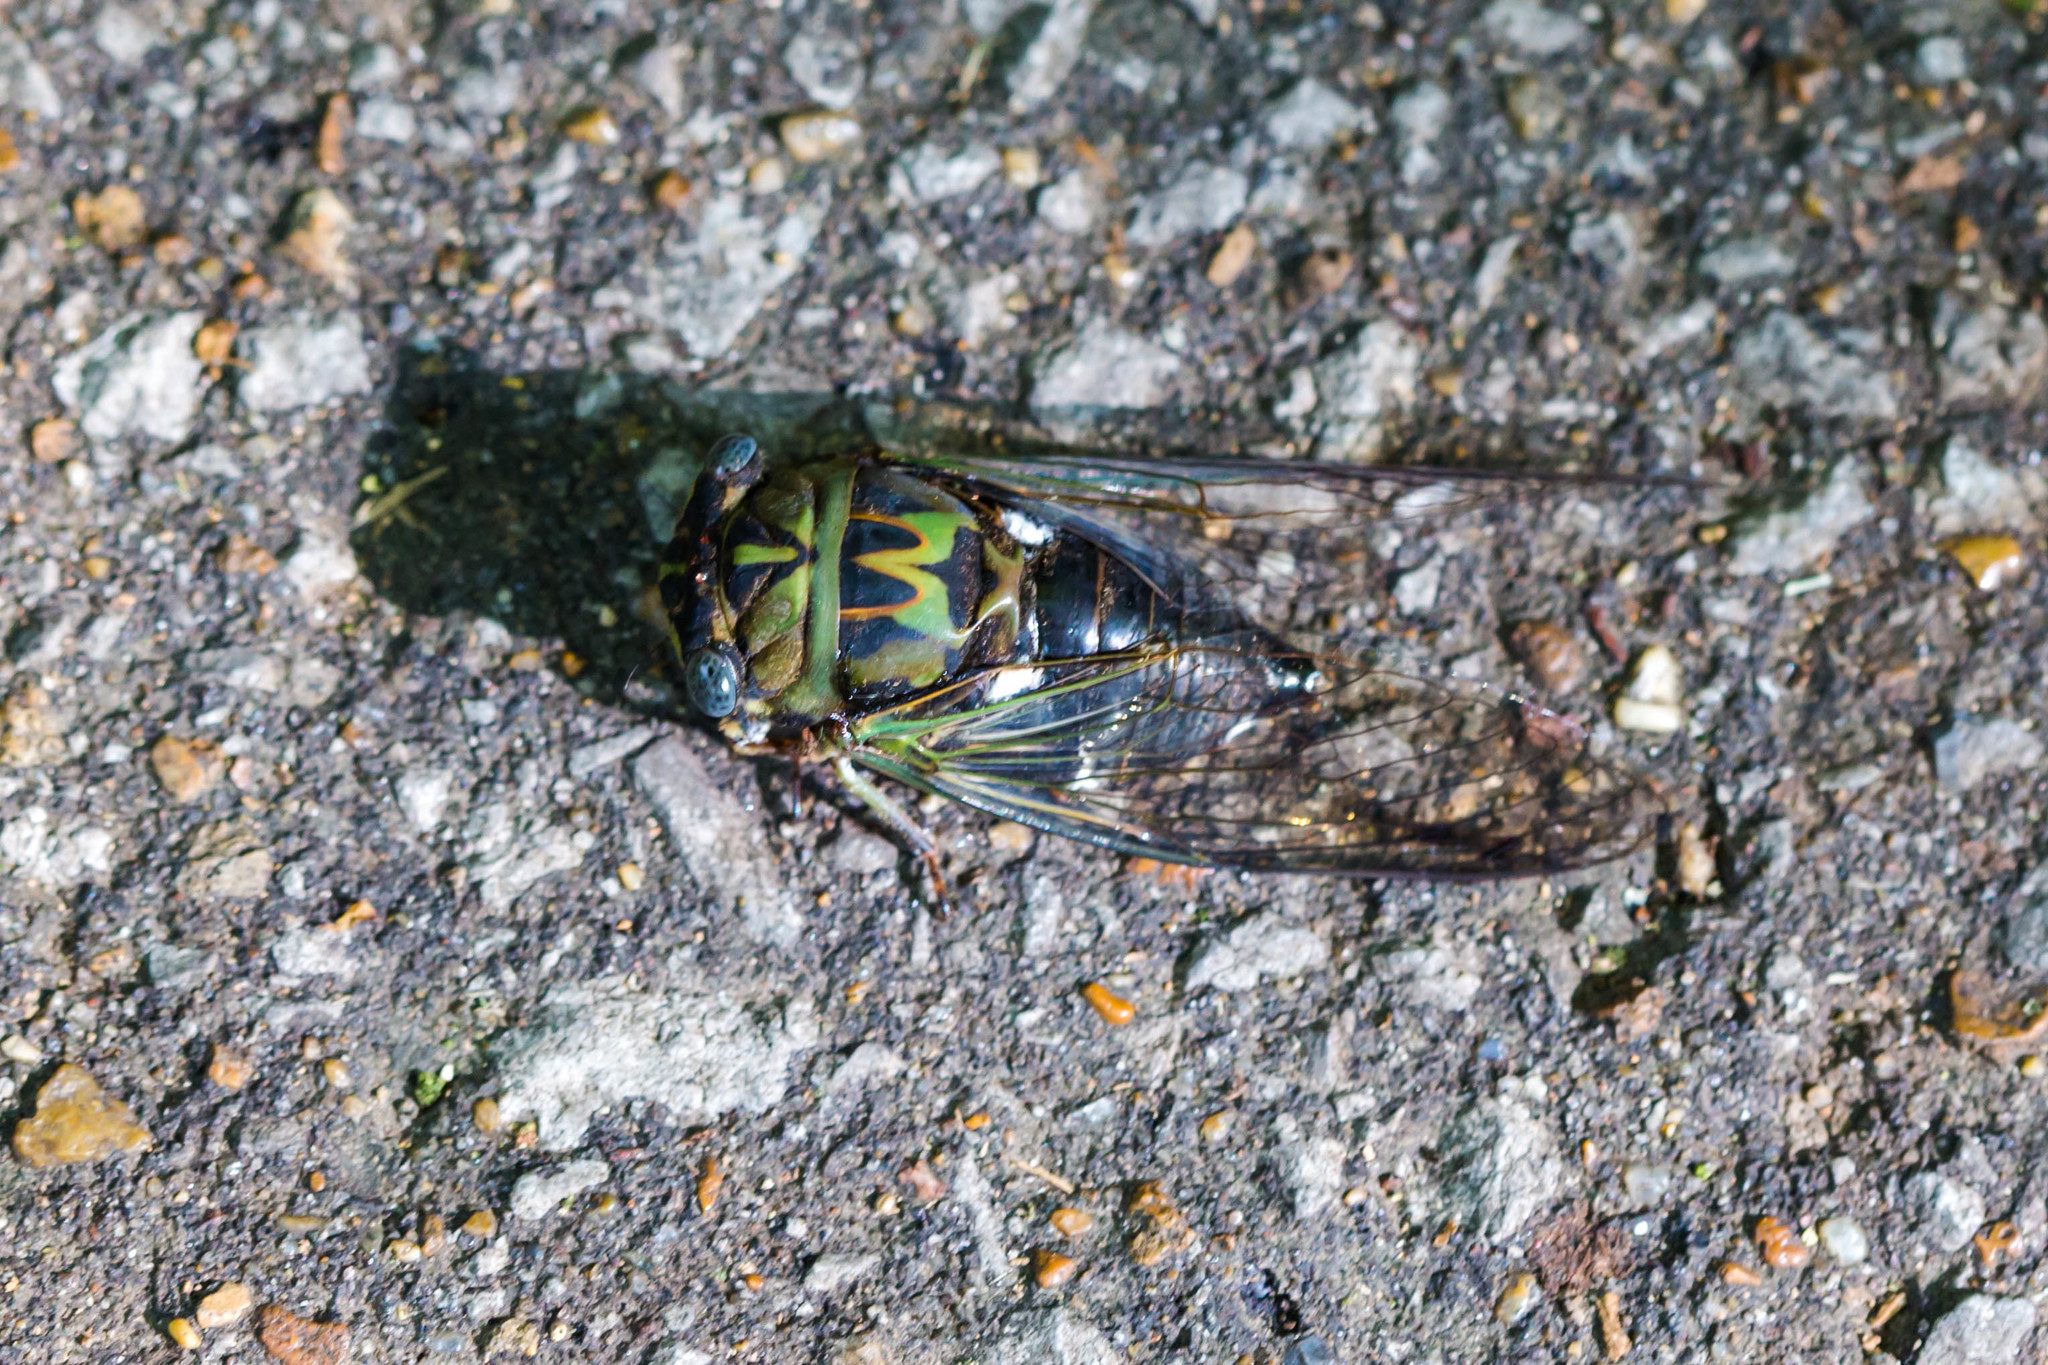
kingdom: Animalia
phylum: Arthropoda
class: Insecta
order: Hemiptera
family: Cicadidae
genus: Neotibicen
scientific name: Neotibicen pruinosus
